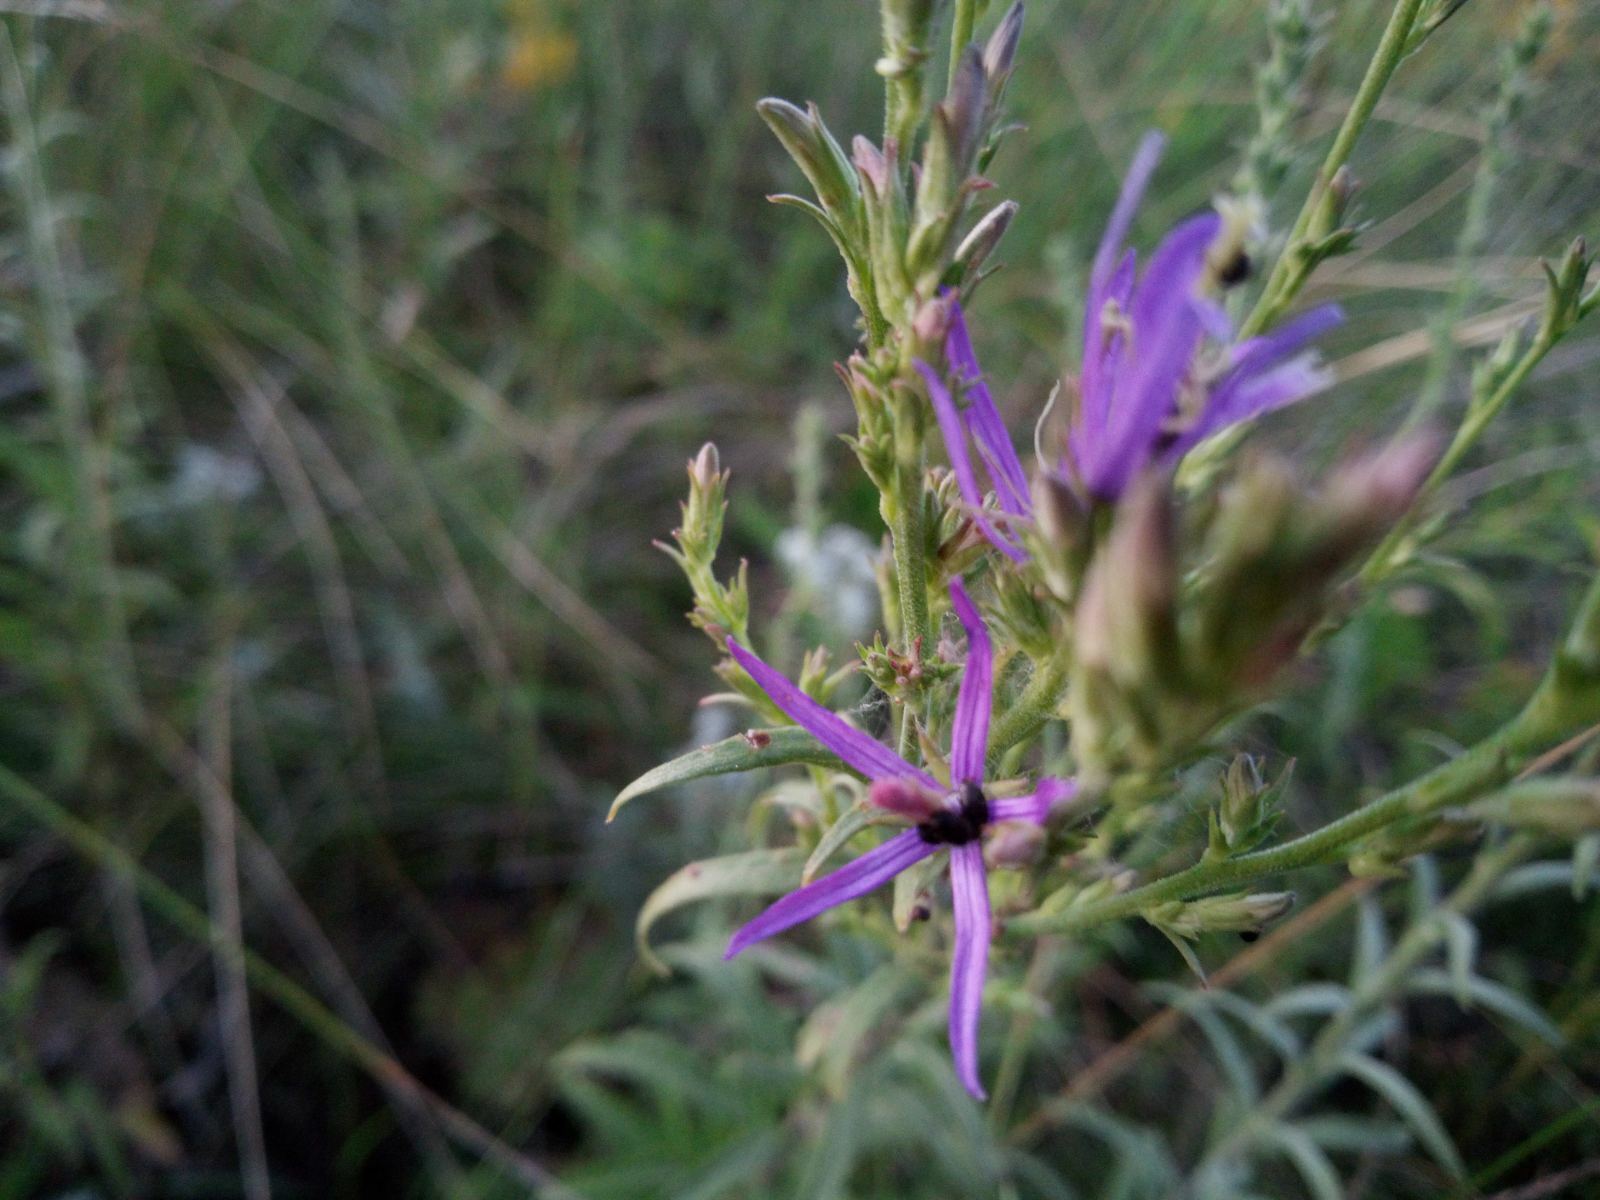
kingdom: Plantae
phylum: Tracheophyta
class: Magnoliopsida
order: Asterales
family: Campanulaceae
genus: Asyneuma
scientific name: Asyneuma canescens
